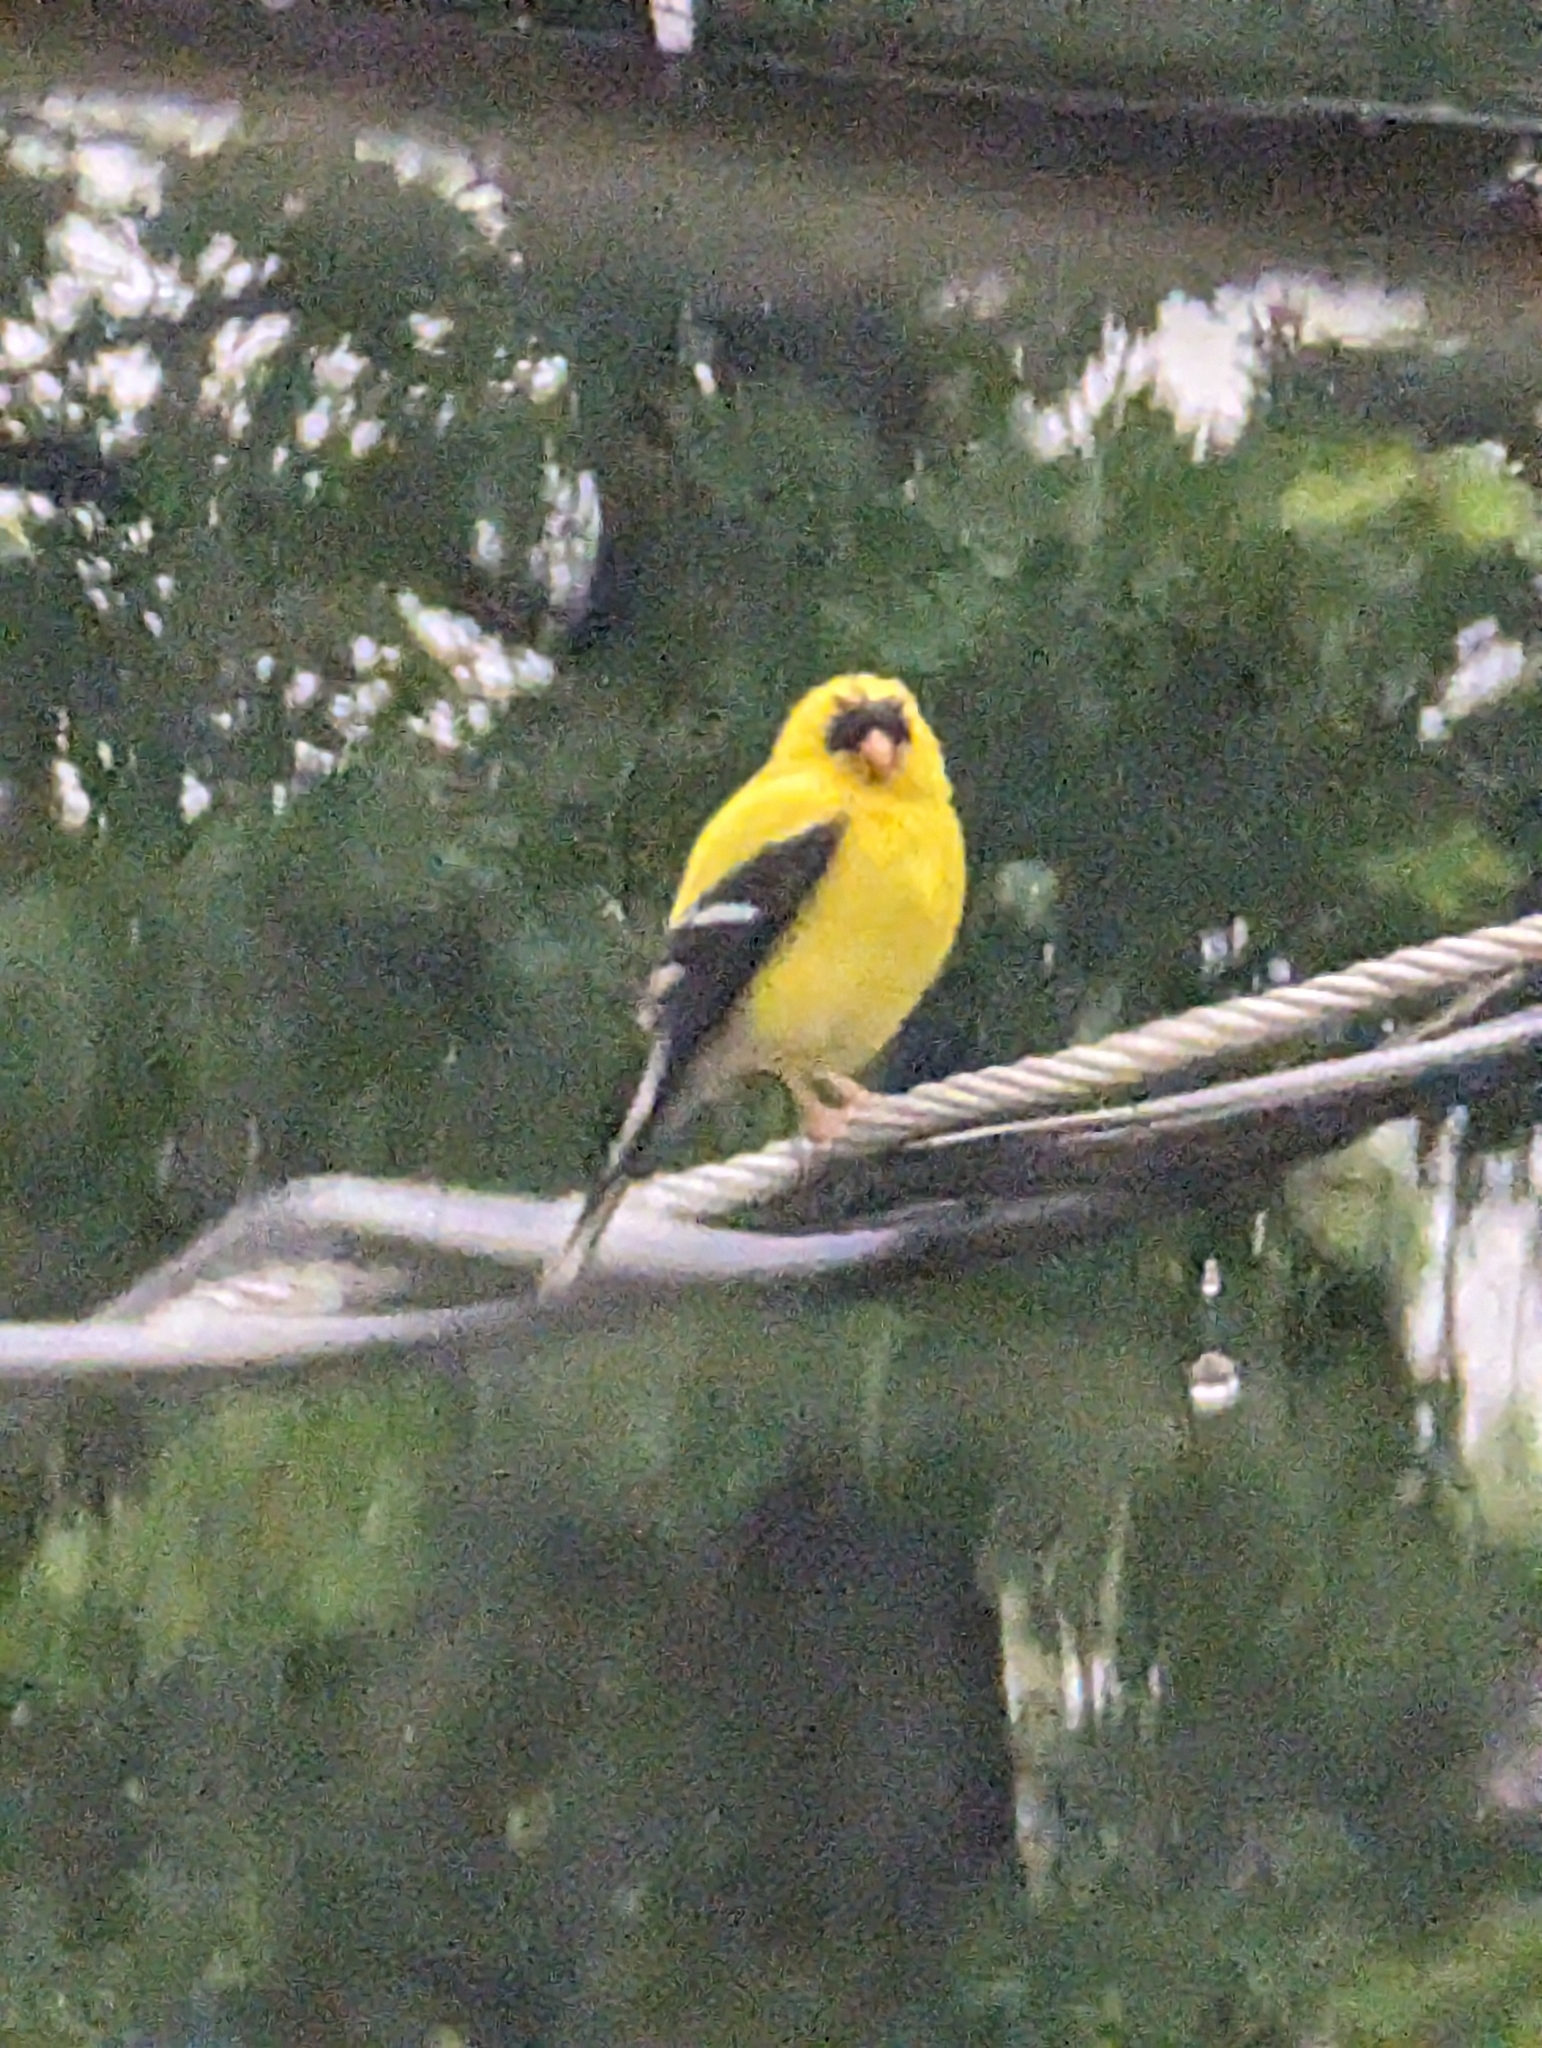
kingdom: Animalia
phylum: Chordata
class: Aves
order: Passeriformes
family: Fringillidae
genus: Spinus
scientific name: Spinus tristis
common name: American goldfinch
